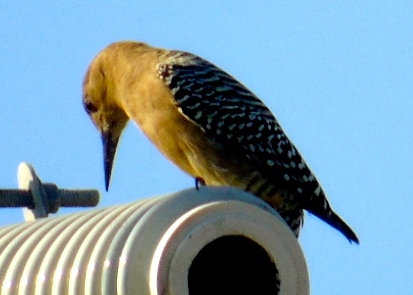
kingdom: Animalia
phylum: Chordata
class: Aves
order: Piciformes
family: Picidae
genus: Melanerpes
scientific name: Melanerpes uropygialis
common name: Gila woodpecker
